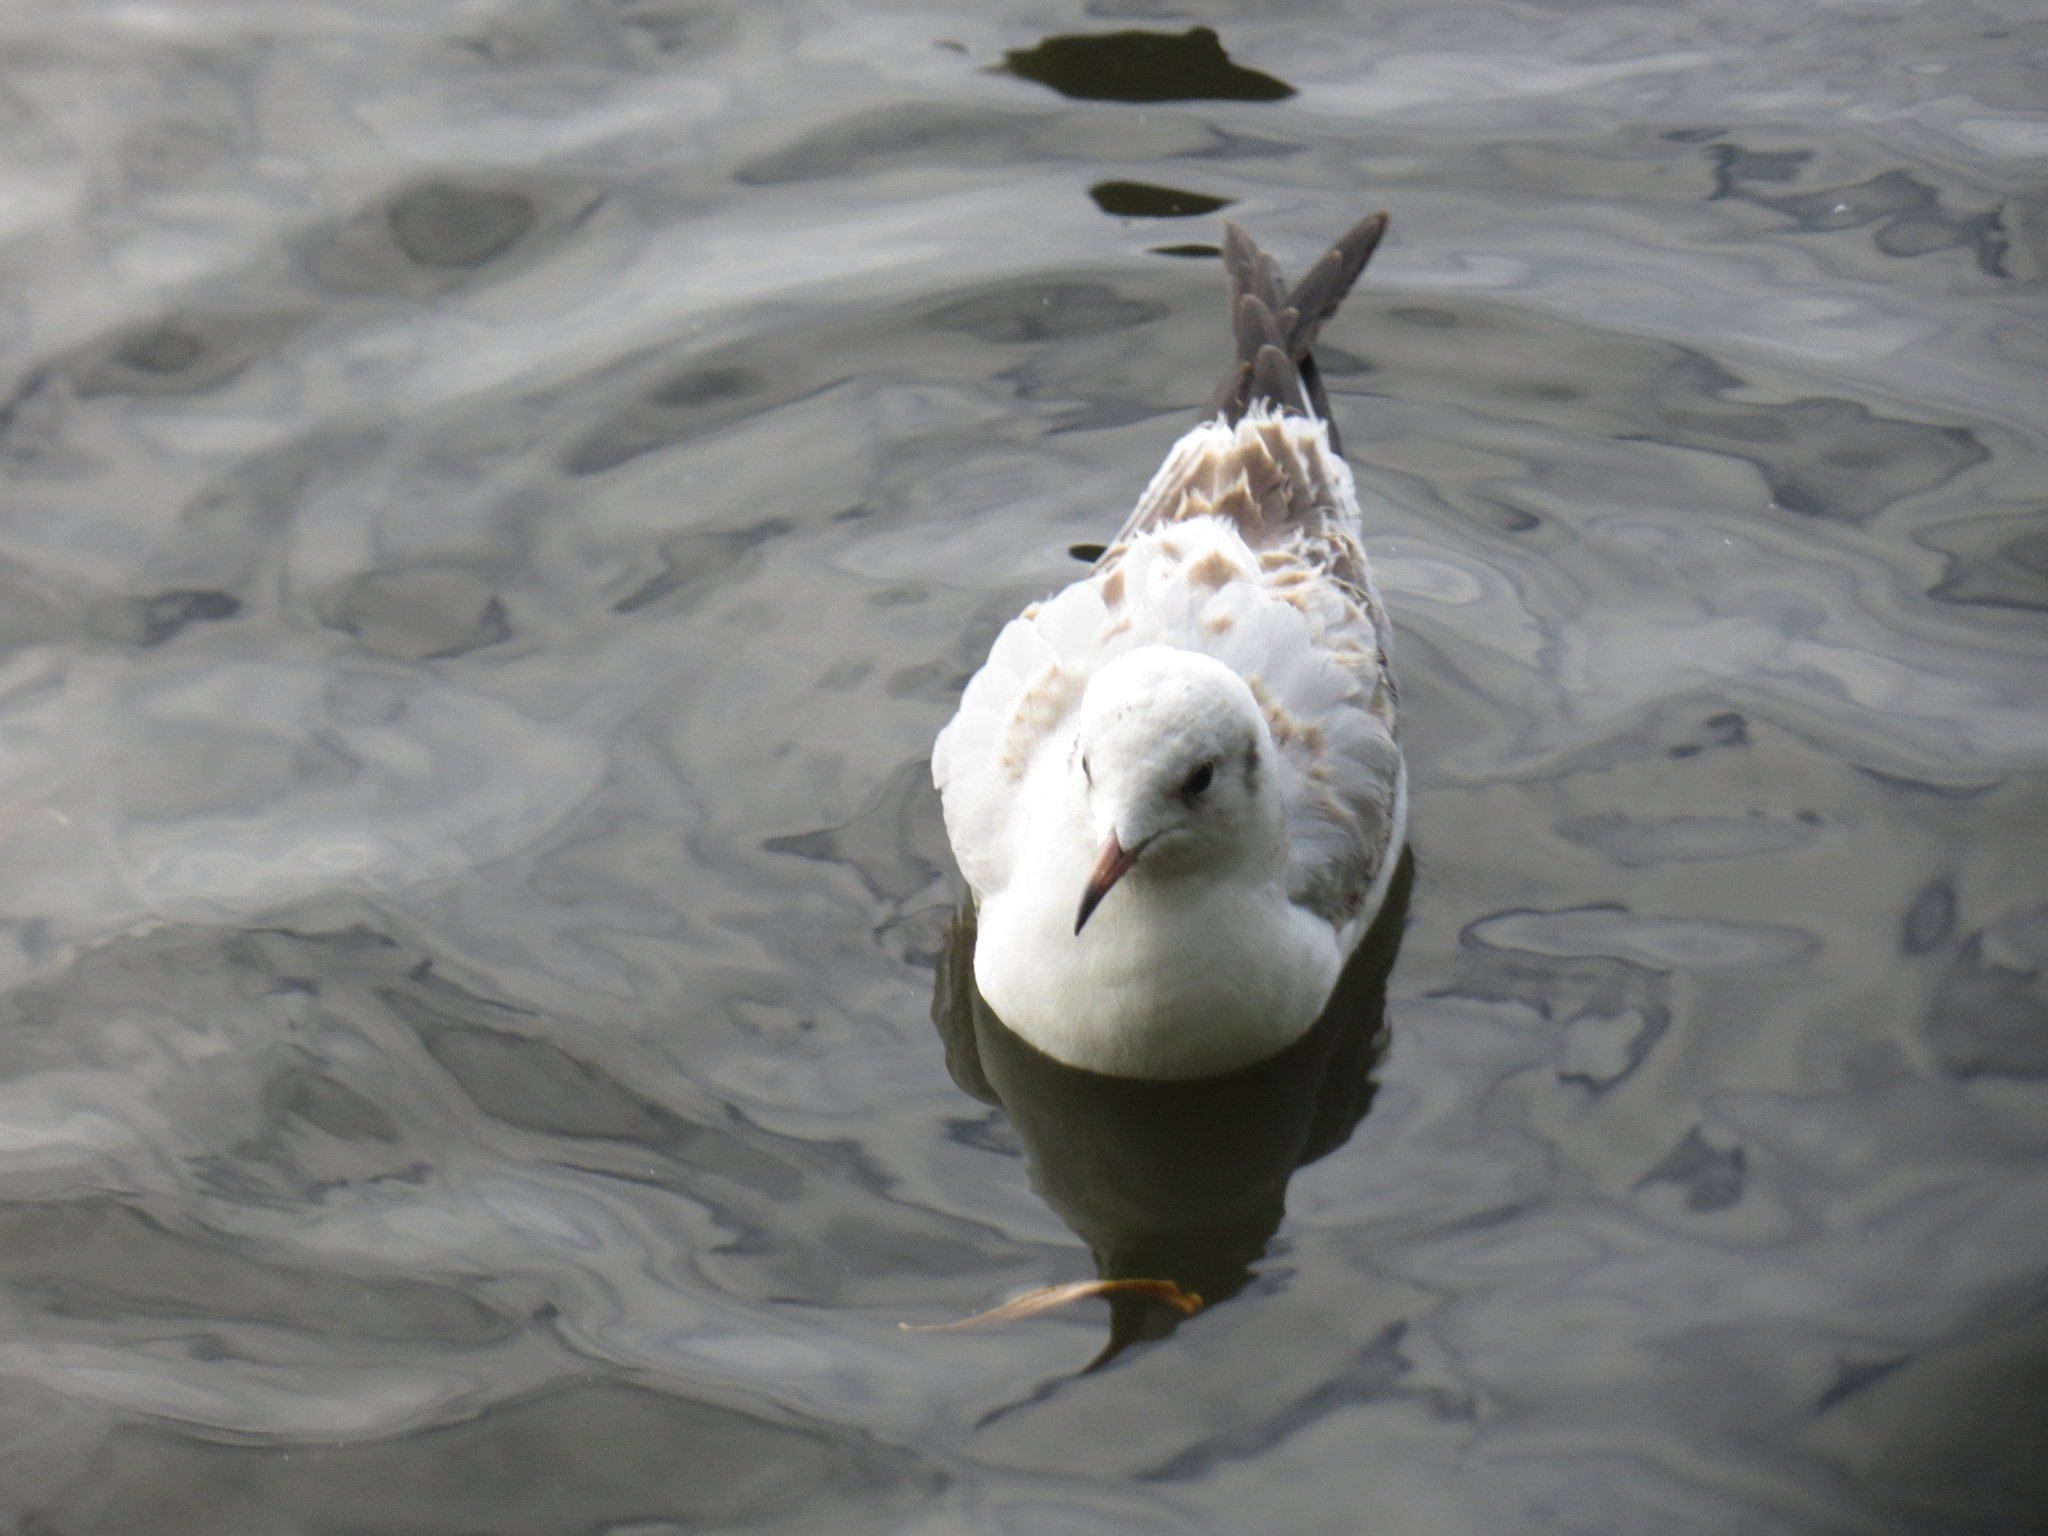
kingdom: Animalia
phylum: Chordata
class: Aves
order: Charadriiformes
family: Laridae
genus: Chroicocephalus
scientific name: Chroicocephalus ridibundus
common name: Black-headed gull
